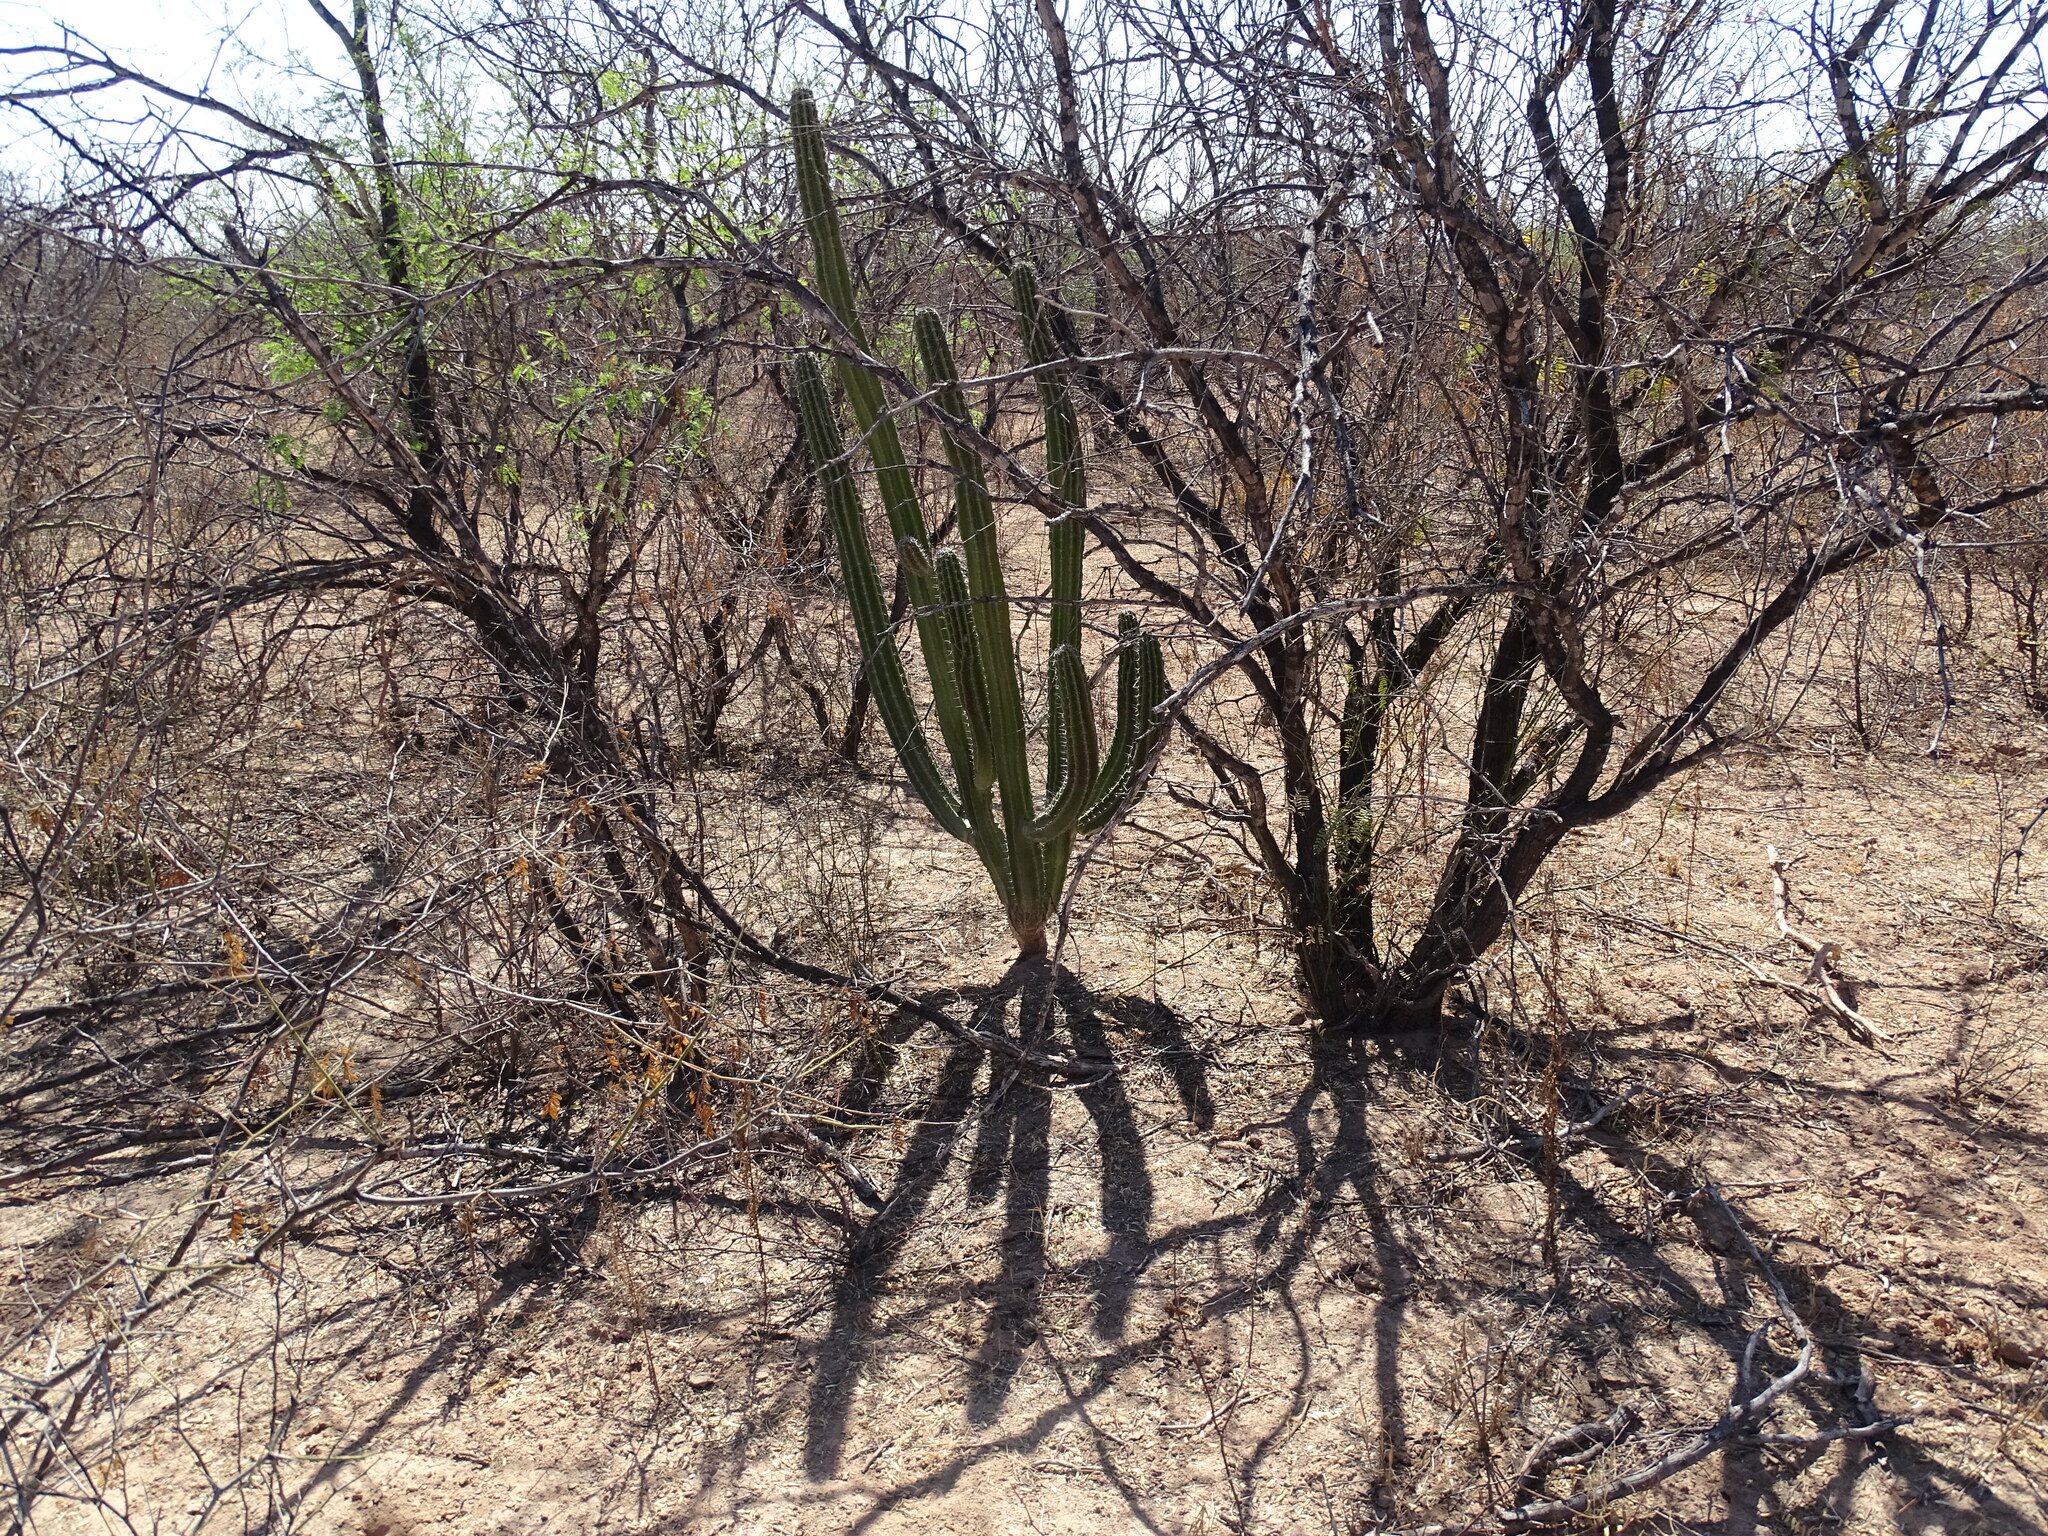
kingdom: Plantae
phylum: Tracheophyta
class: Magnoliopsida
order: Caryophyllales
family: Cactaceae
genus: Pachycereus
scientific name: Pachycereus schottii
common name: Senita cactus
